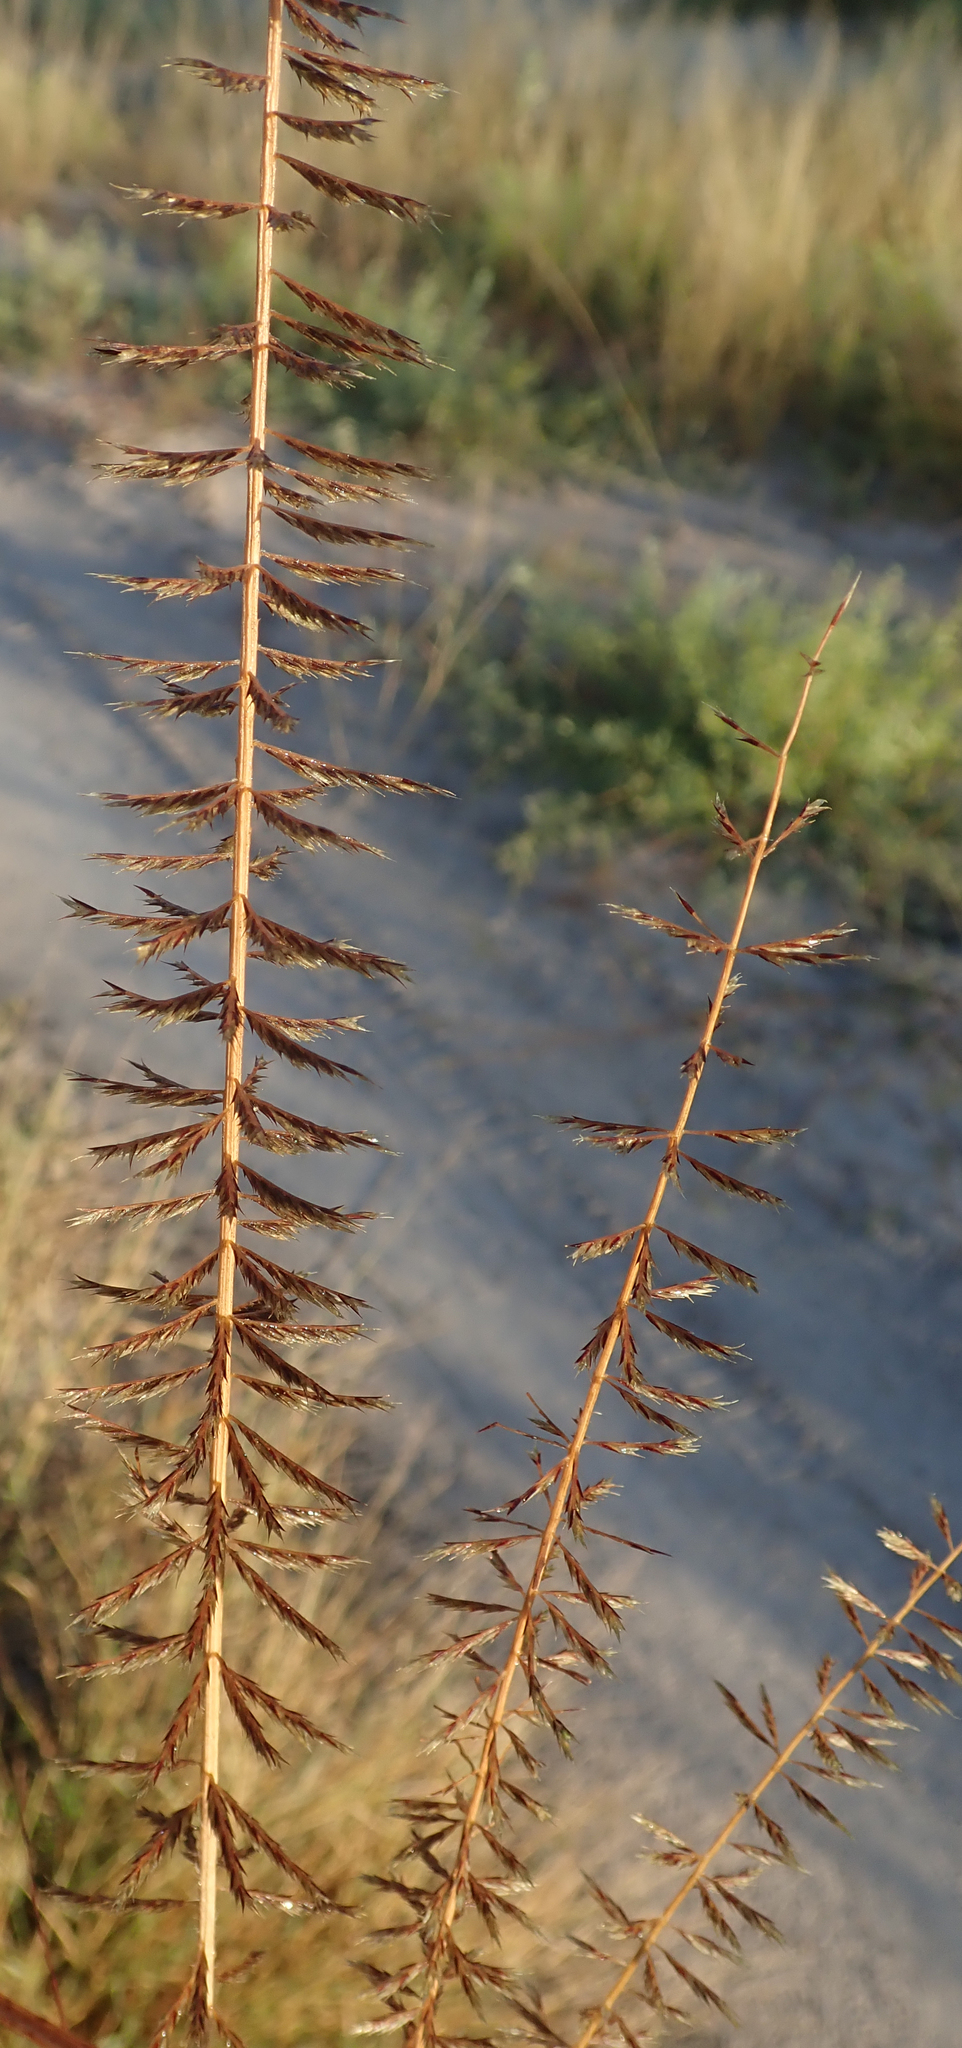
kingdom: Plantae
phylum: Tracheophyta
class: Liliopsida
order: Poales
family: Poaceae
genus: Pogonarthria
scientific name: Pogonarthria squarrosa
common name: Grass
